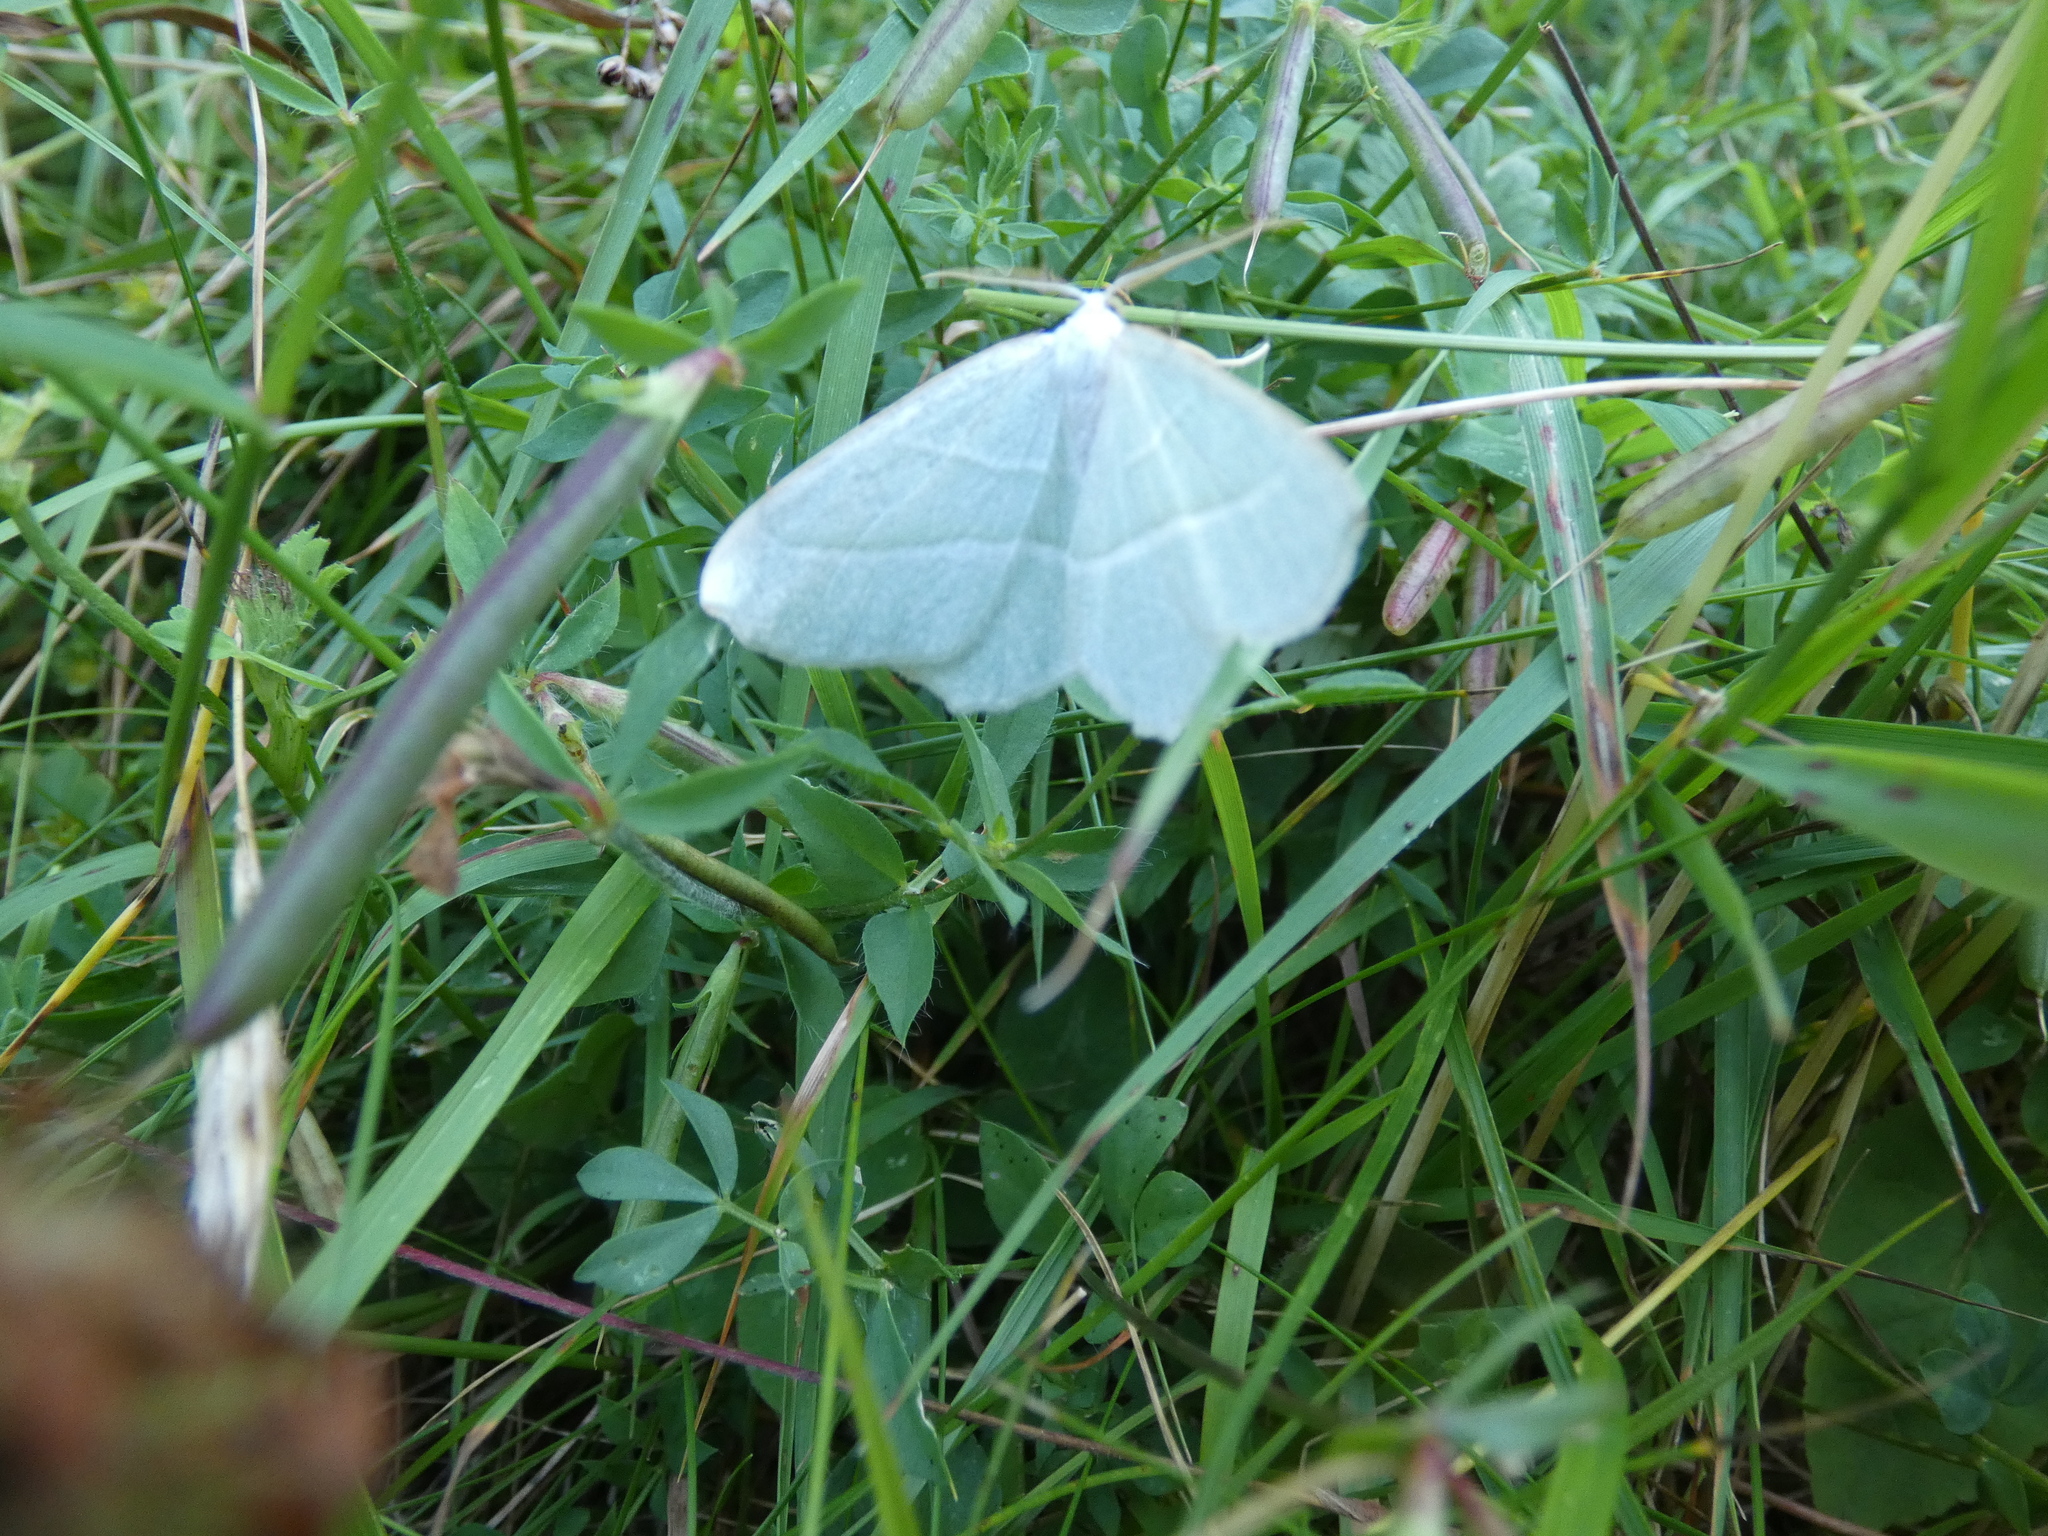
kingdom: Animalia
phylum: Arthropoda
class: Insecta
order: Lepidoptera
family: Geometridae
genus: Campaea
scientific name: Campaea margaritaria
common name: Light emerald
